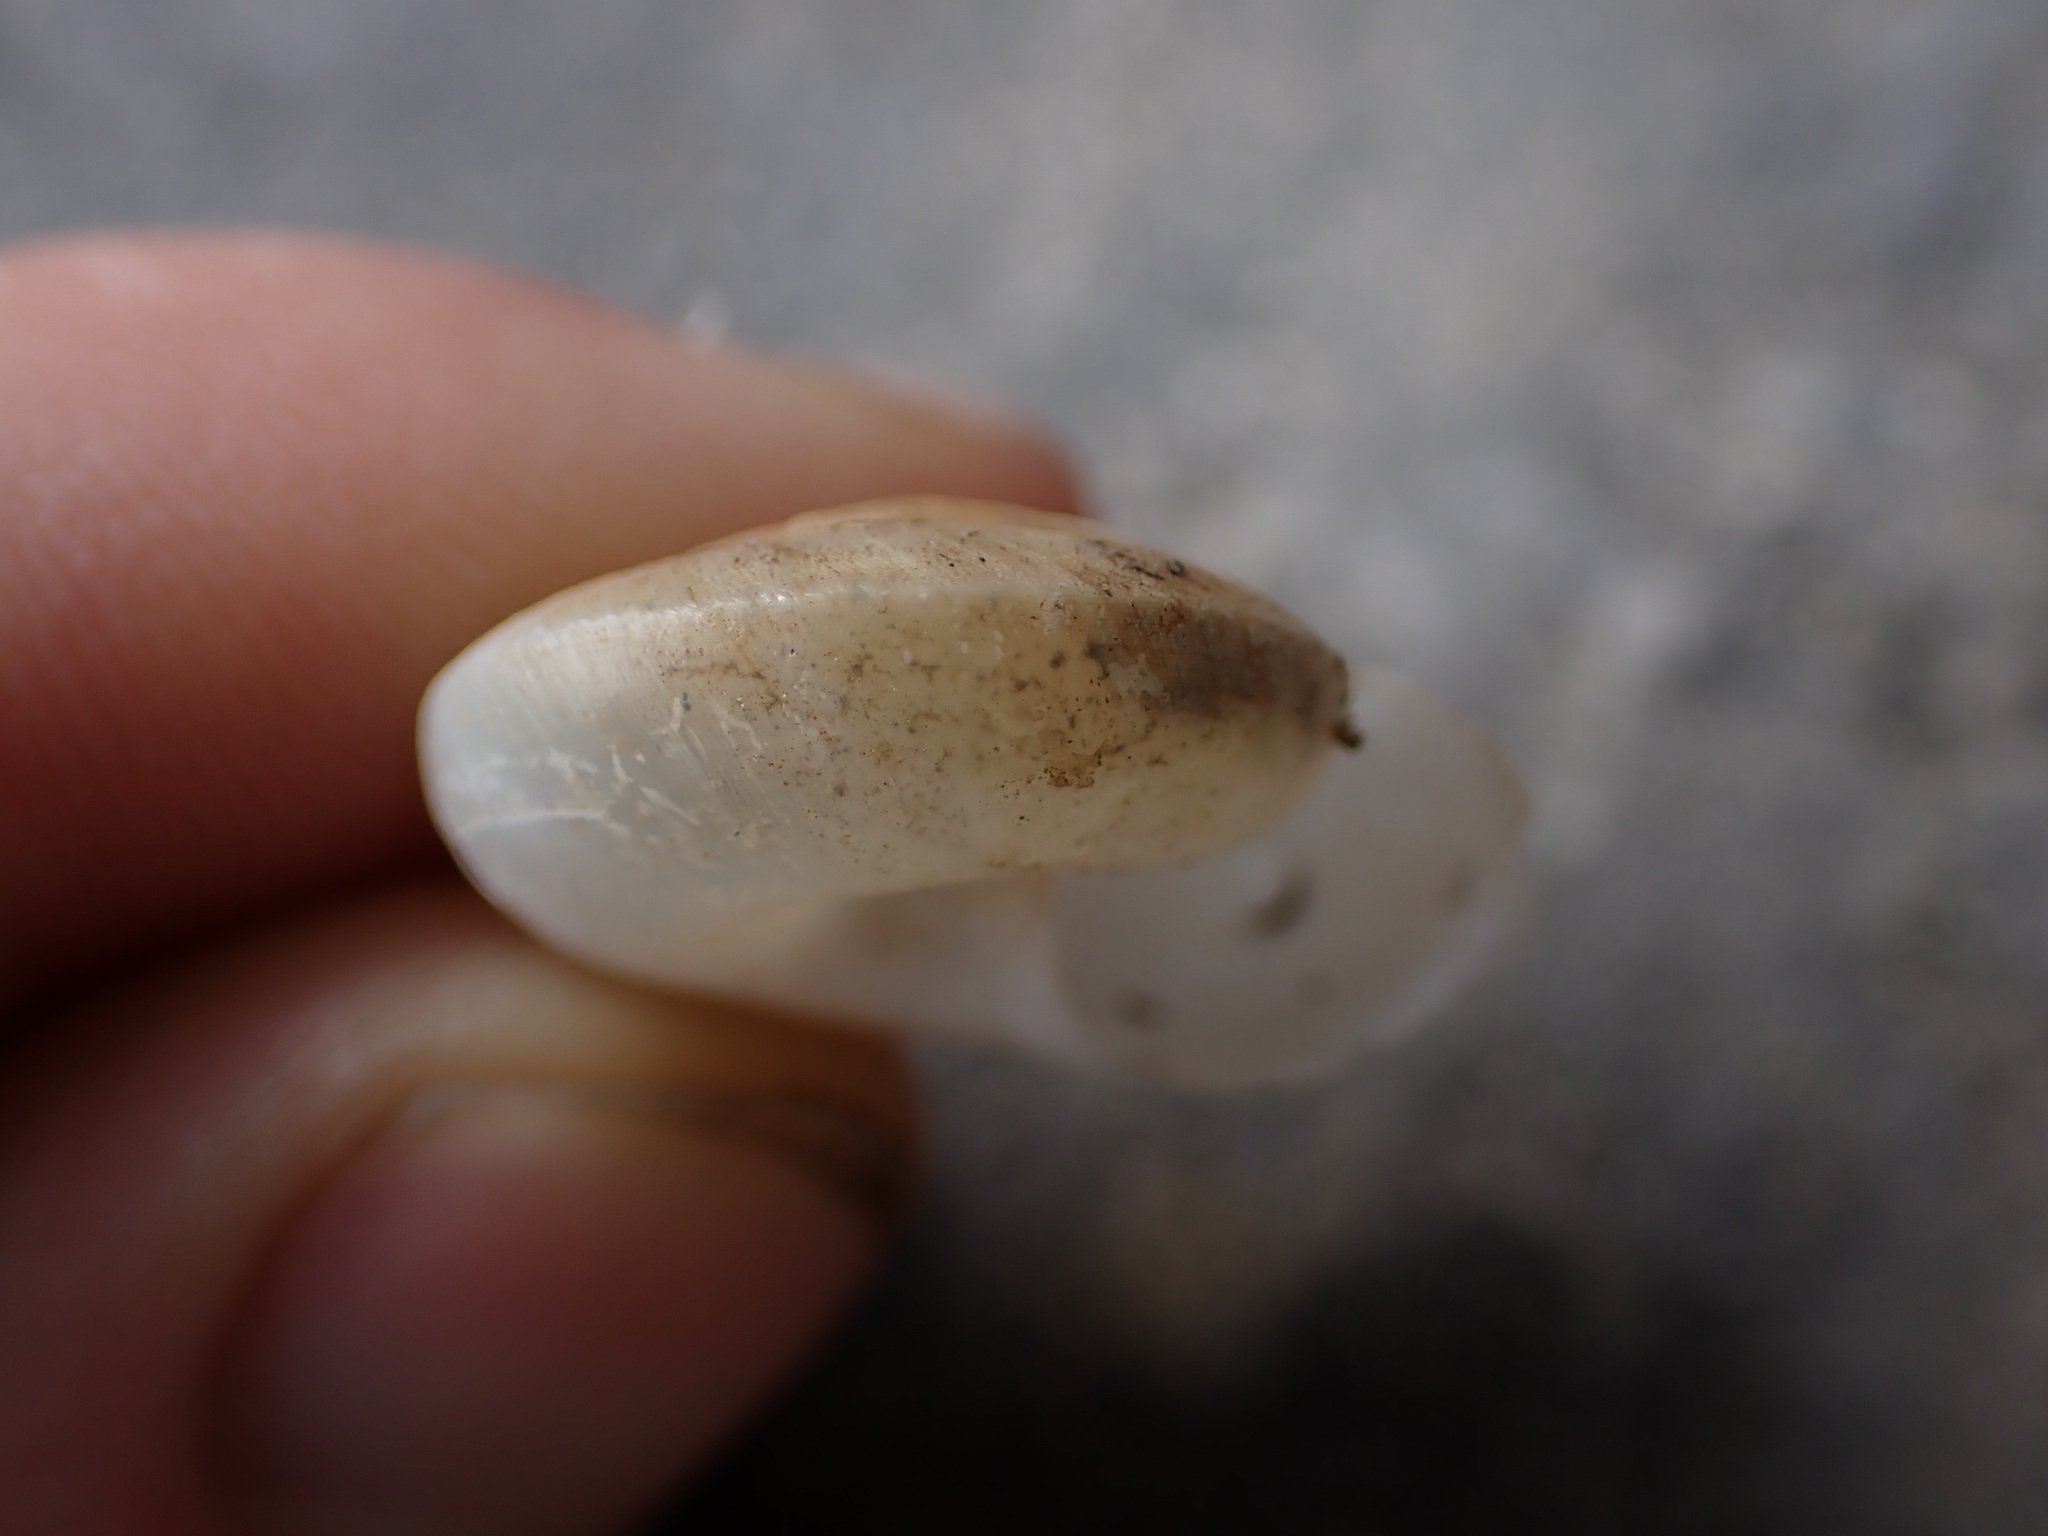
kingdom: Animalia
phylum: Mollusca
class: Gastropoda
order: Stylommatophora
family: Zonitidae
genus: Zonites
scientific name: Zonites algirus
